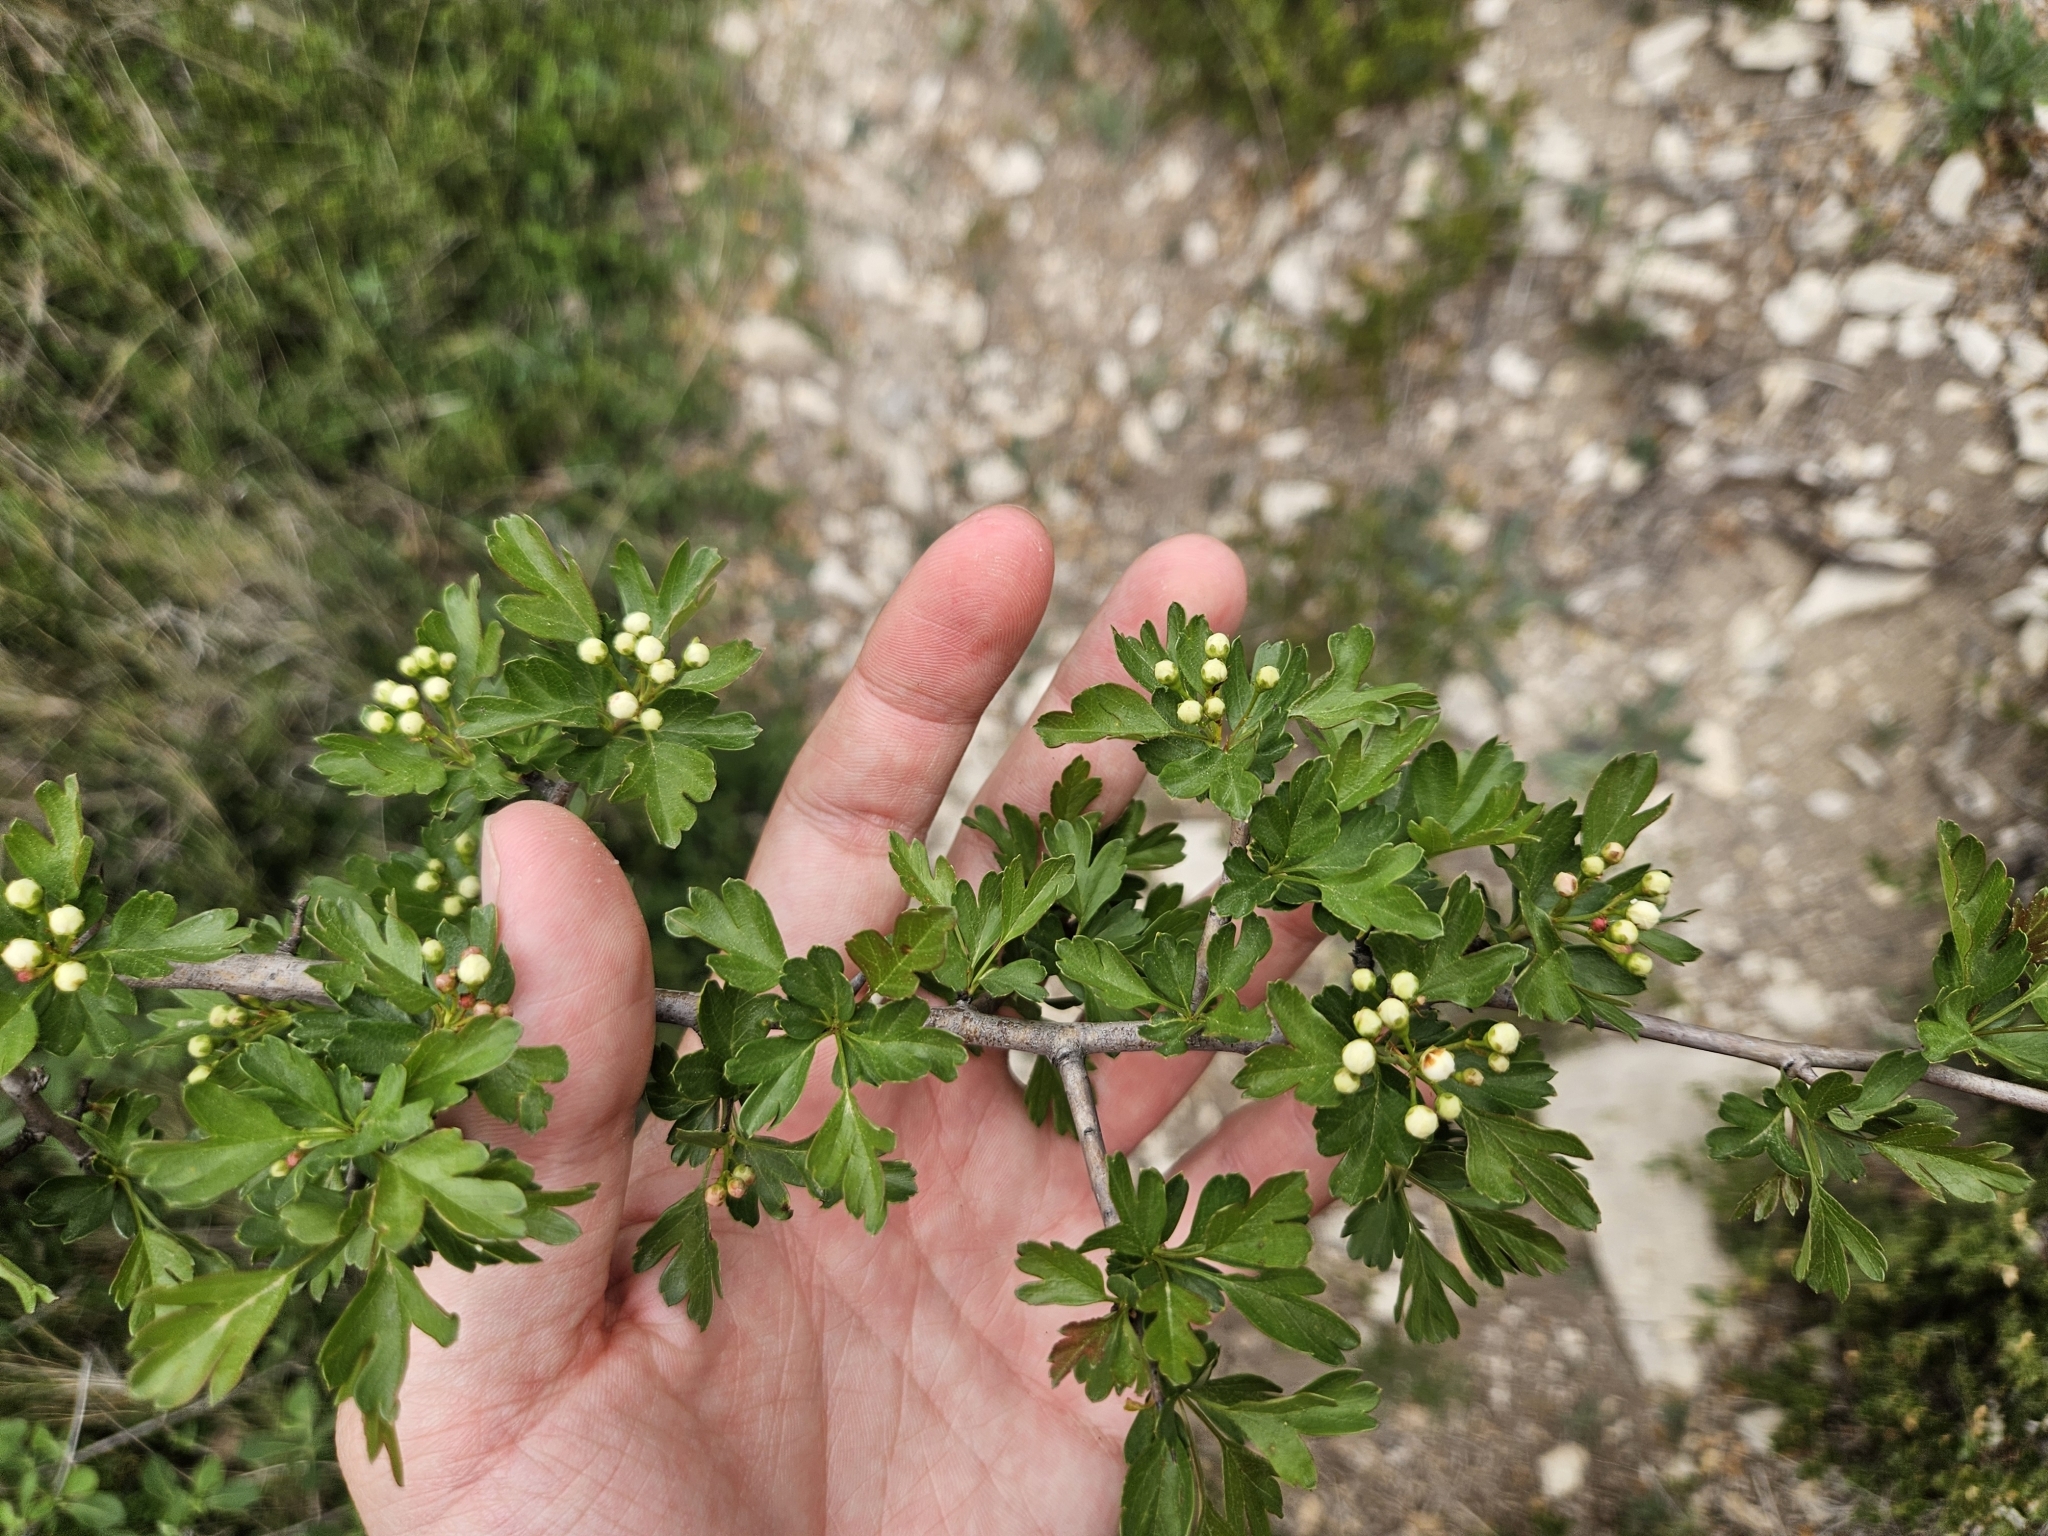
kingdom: Plantae
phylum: Tracheophyta
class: Magnoliopsida
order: Rosales
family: Rosaceae
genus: Crataegus
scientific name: Crataegus monogyna
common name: Hawthorn
